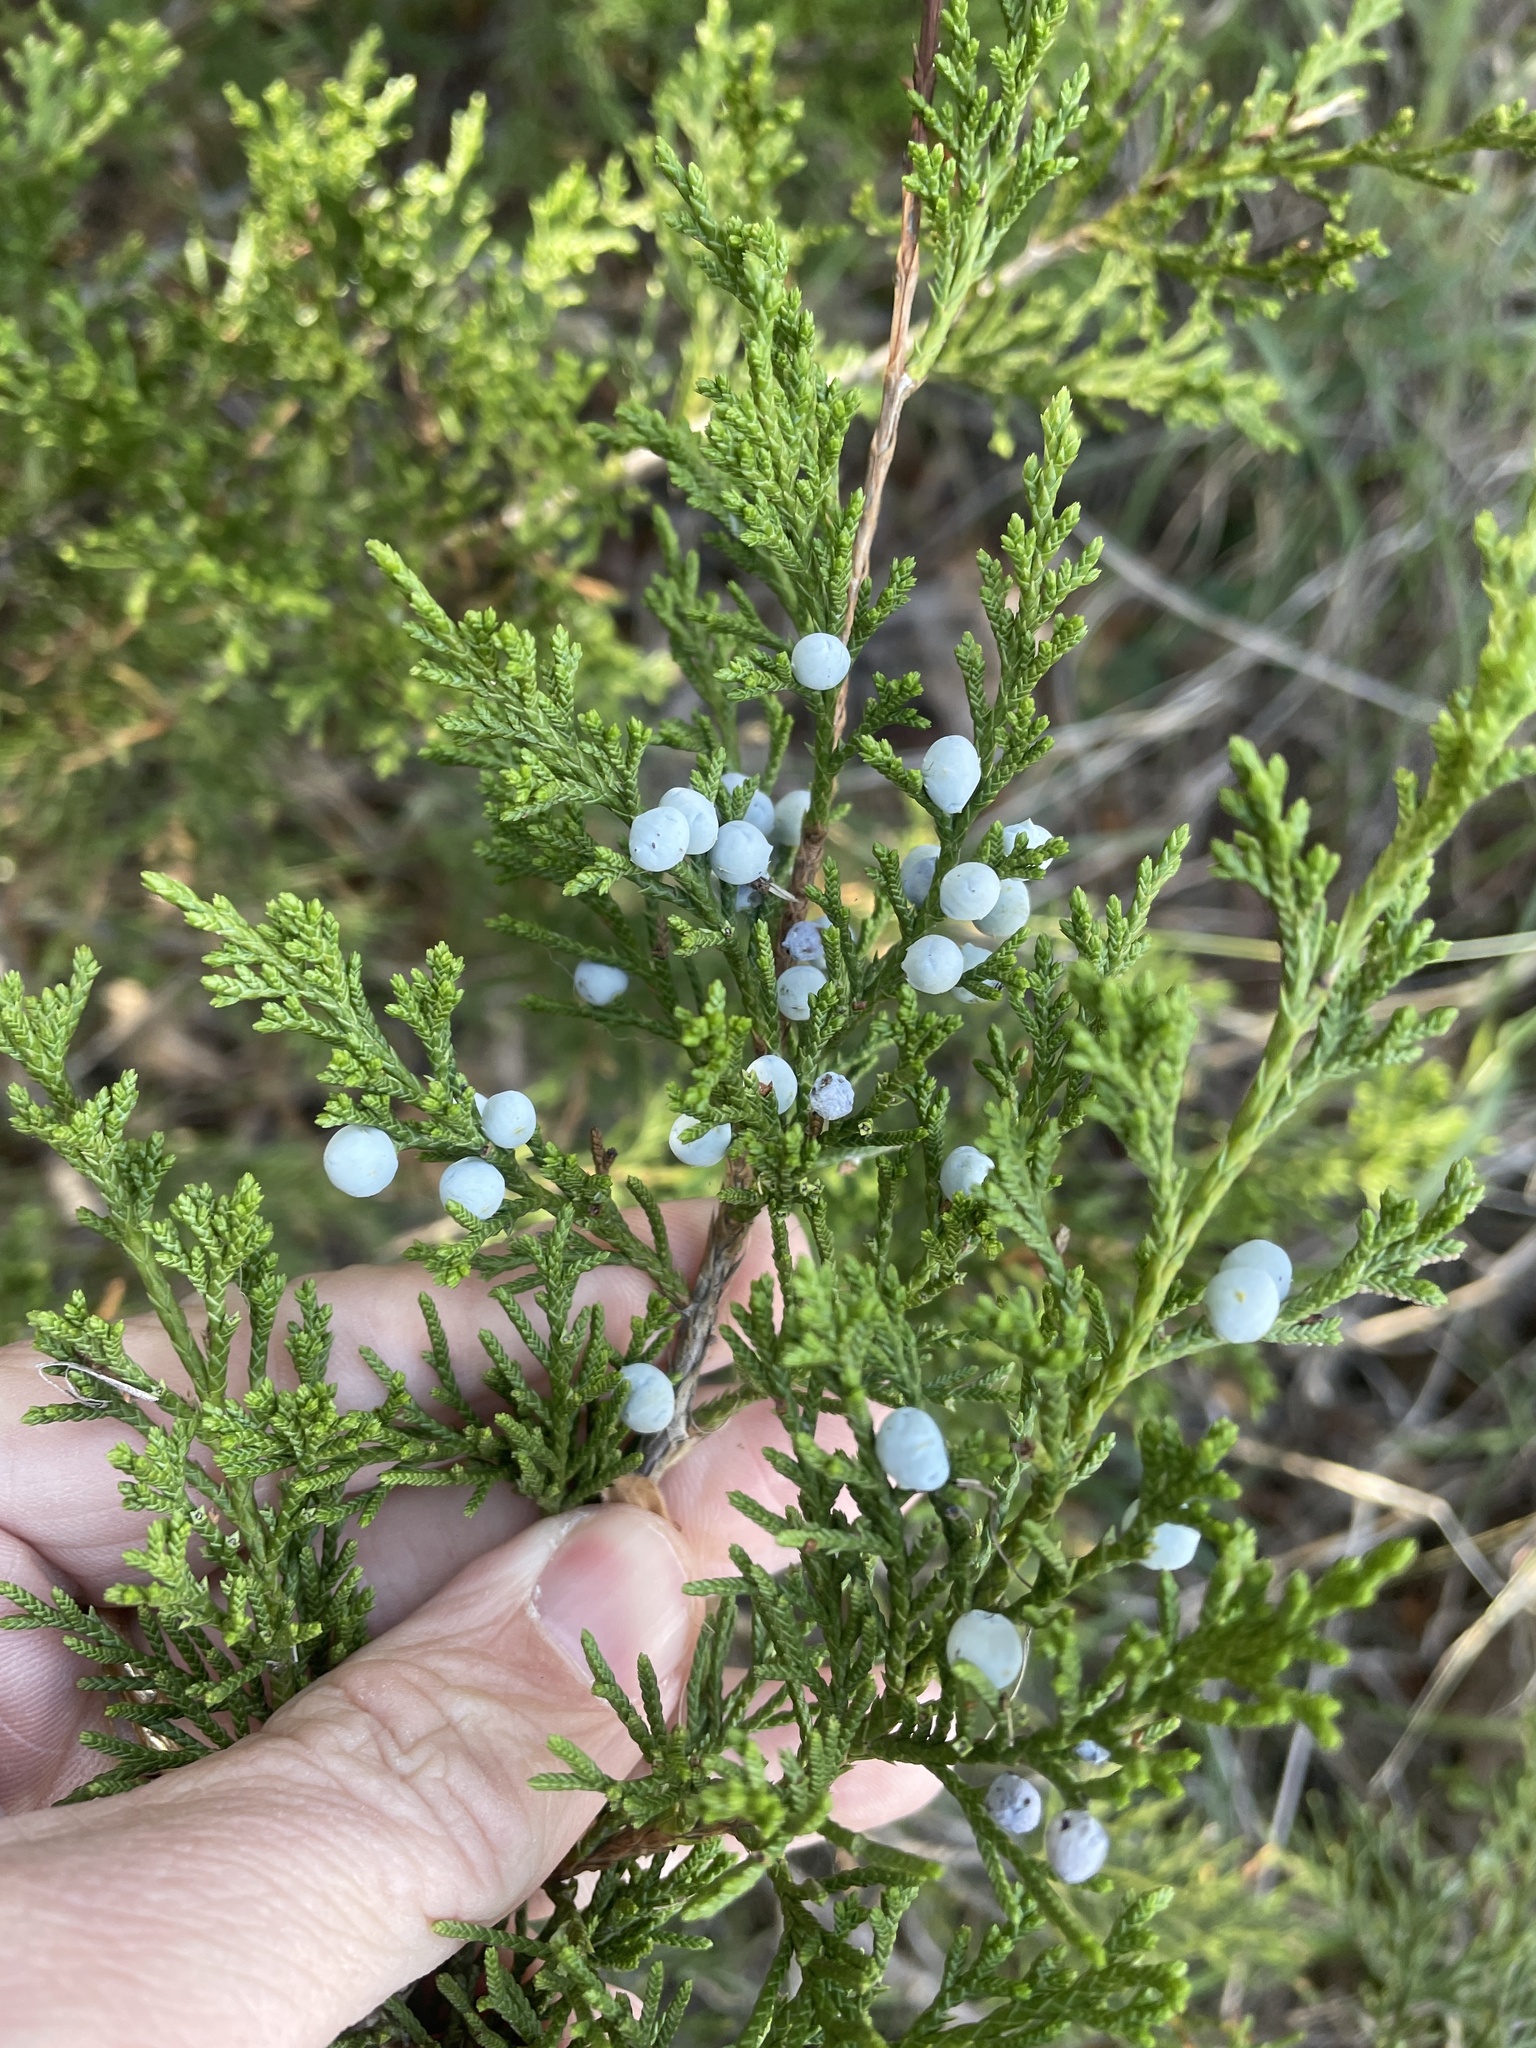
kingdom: Plantae
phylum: Tracheophyta
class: Pinopsida
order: Pinales
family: Cupressaceae
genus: Juniperus
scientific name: Juniperus virginiana
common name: Red juniper
